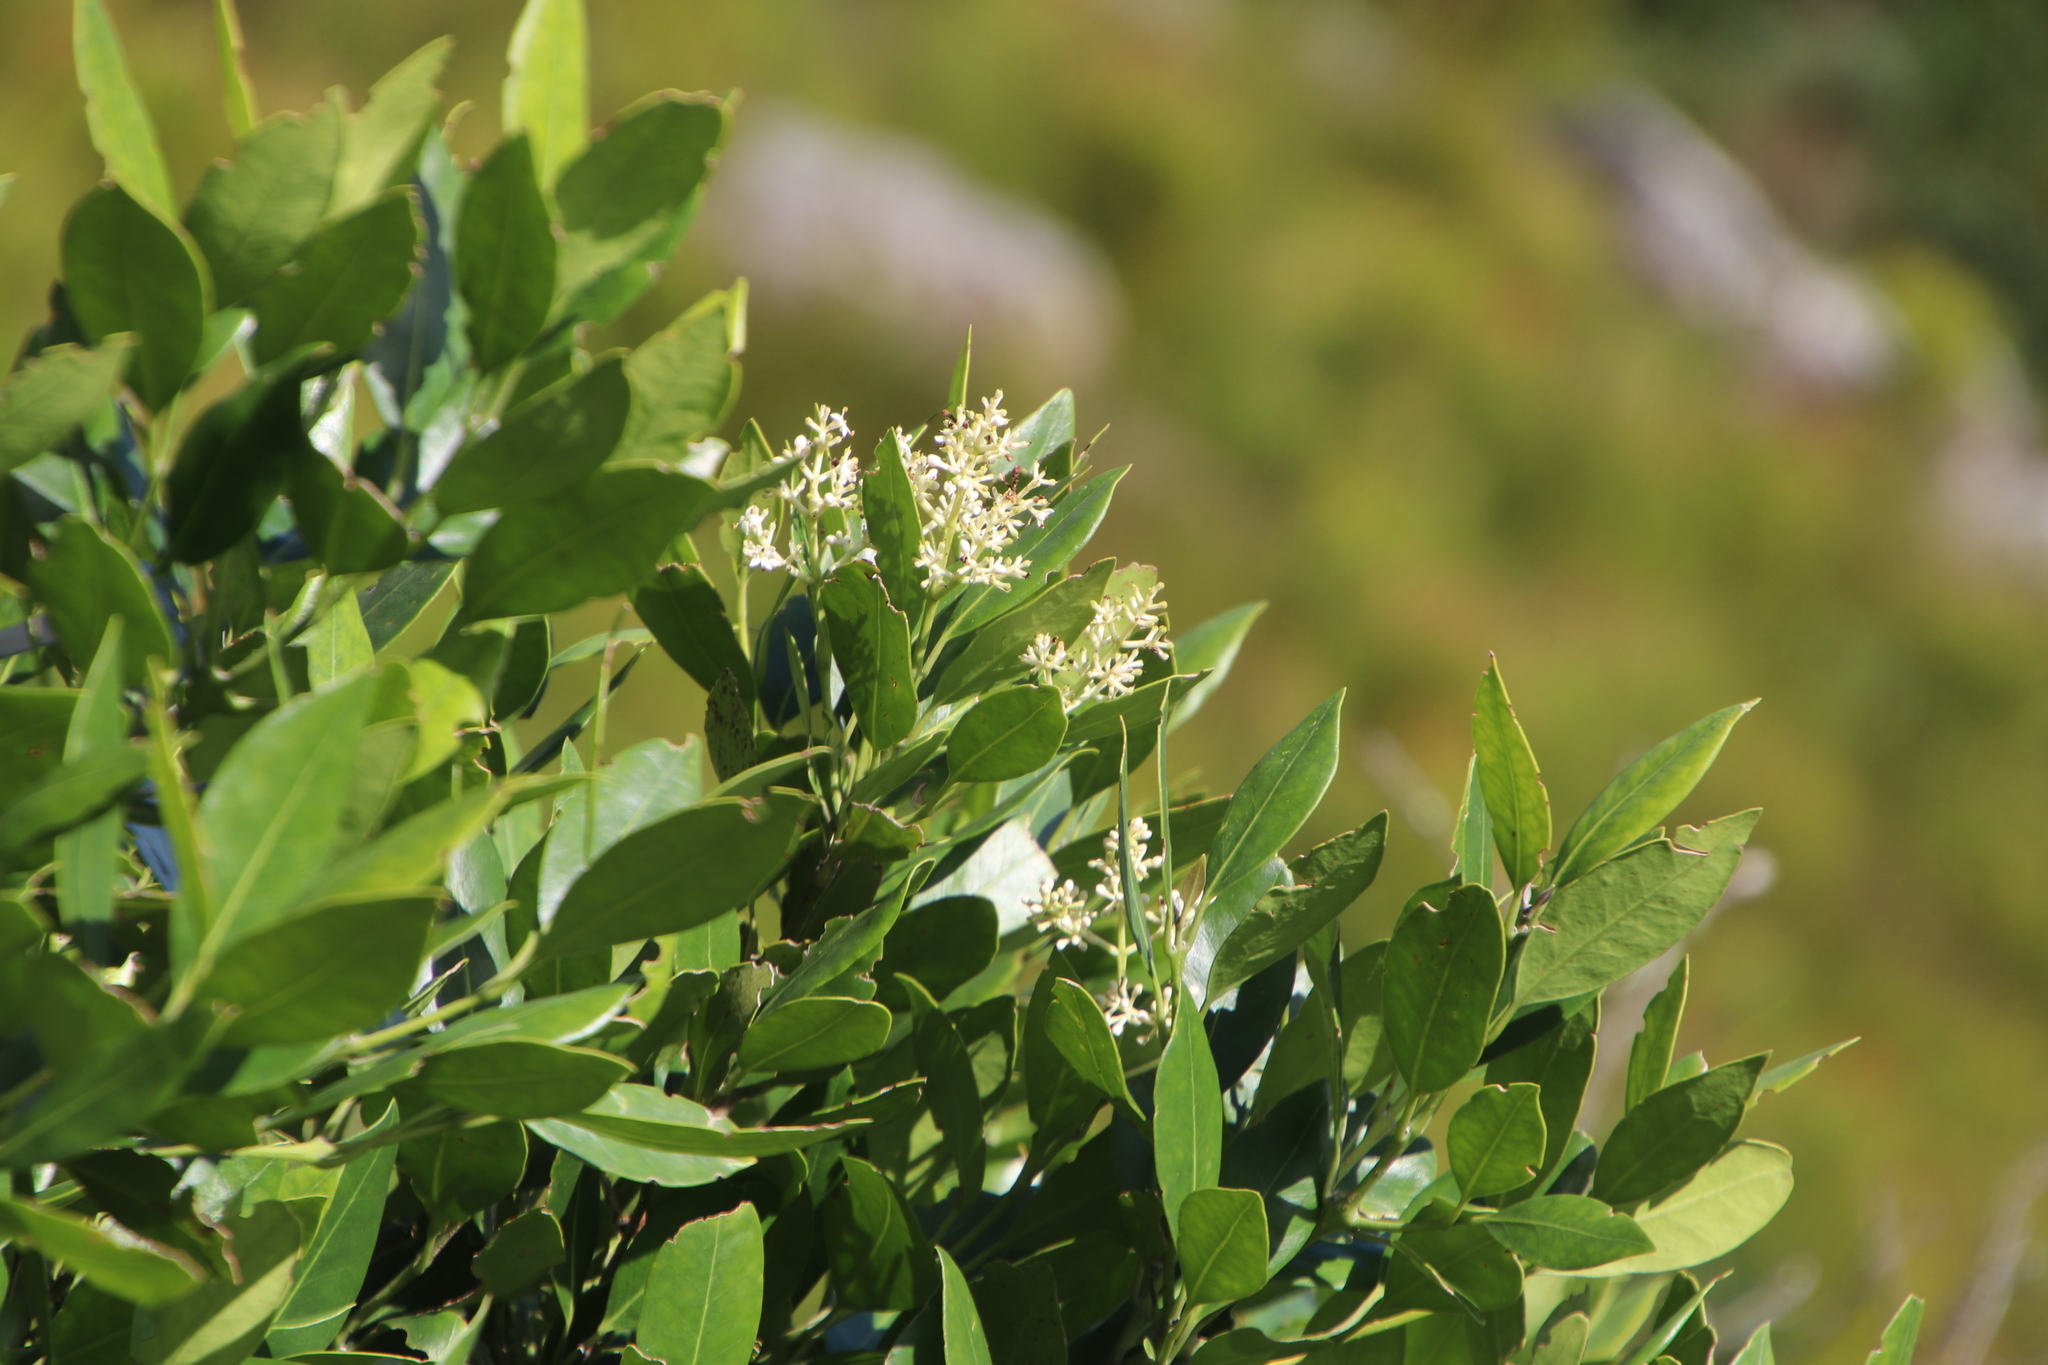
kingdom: Plantae
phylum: Tracheophyta
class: Magnoliopsida
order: Lamiales
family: Oleaceae
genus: Olea
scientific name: Olea capensis
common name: Black ironwood
